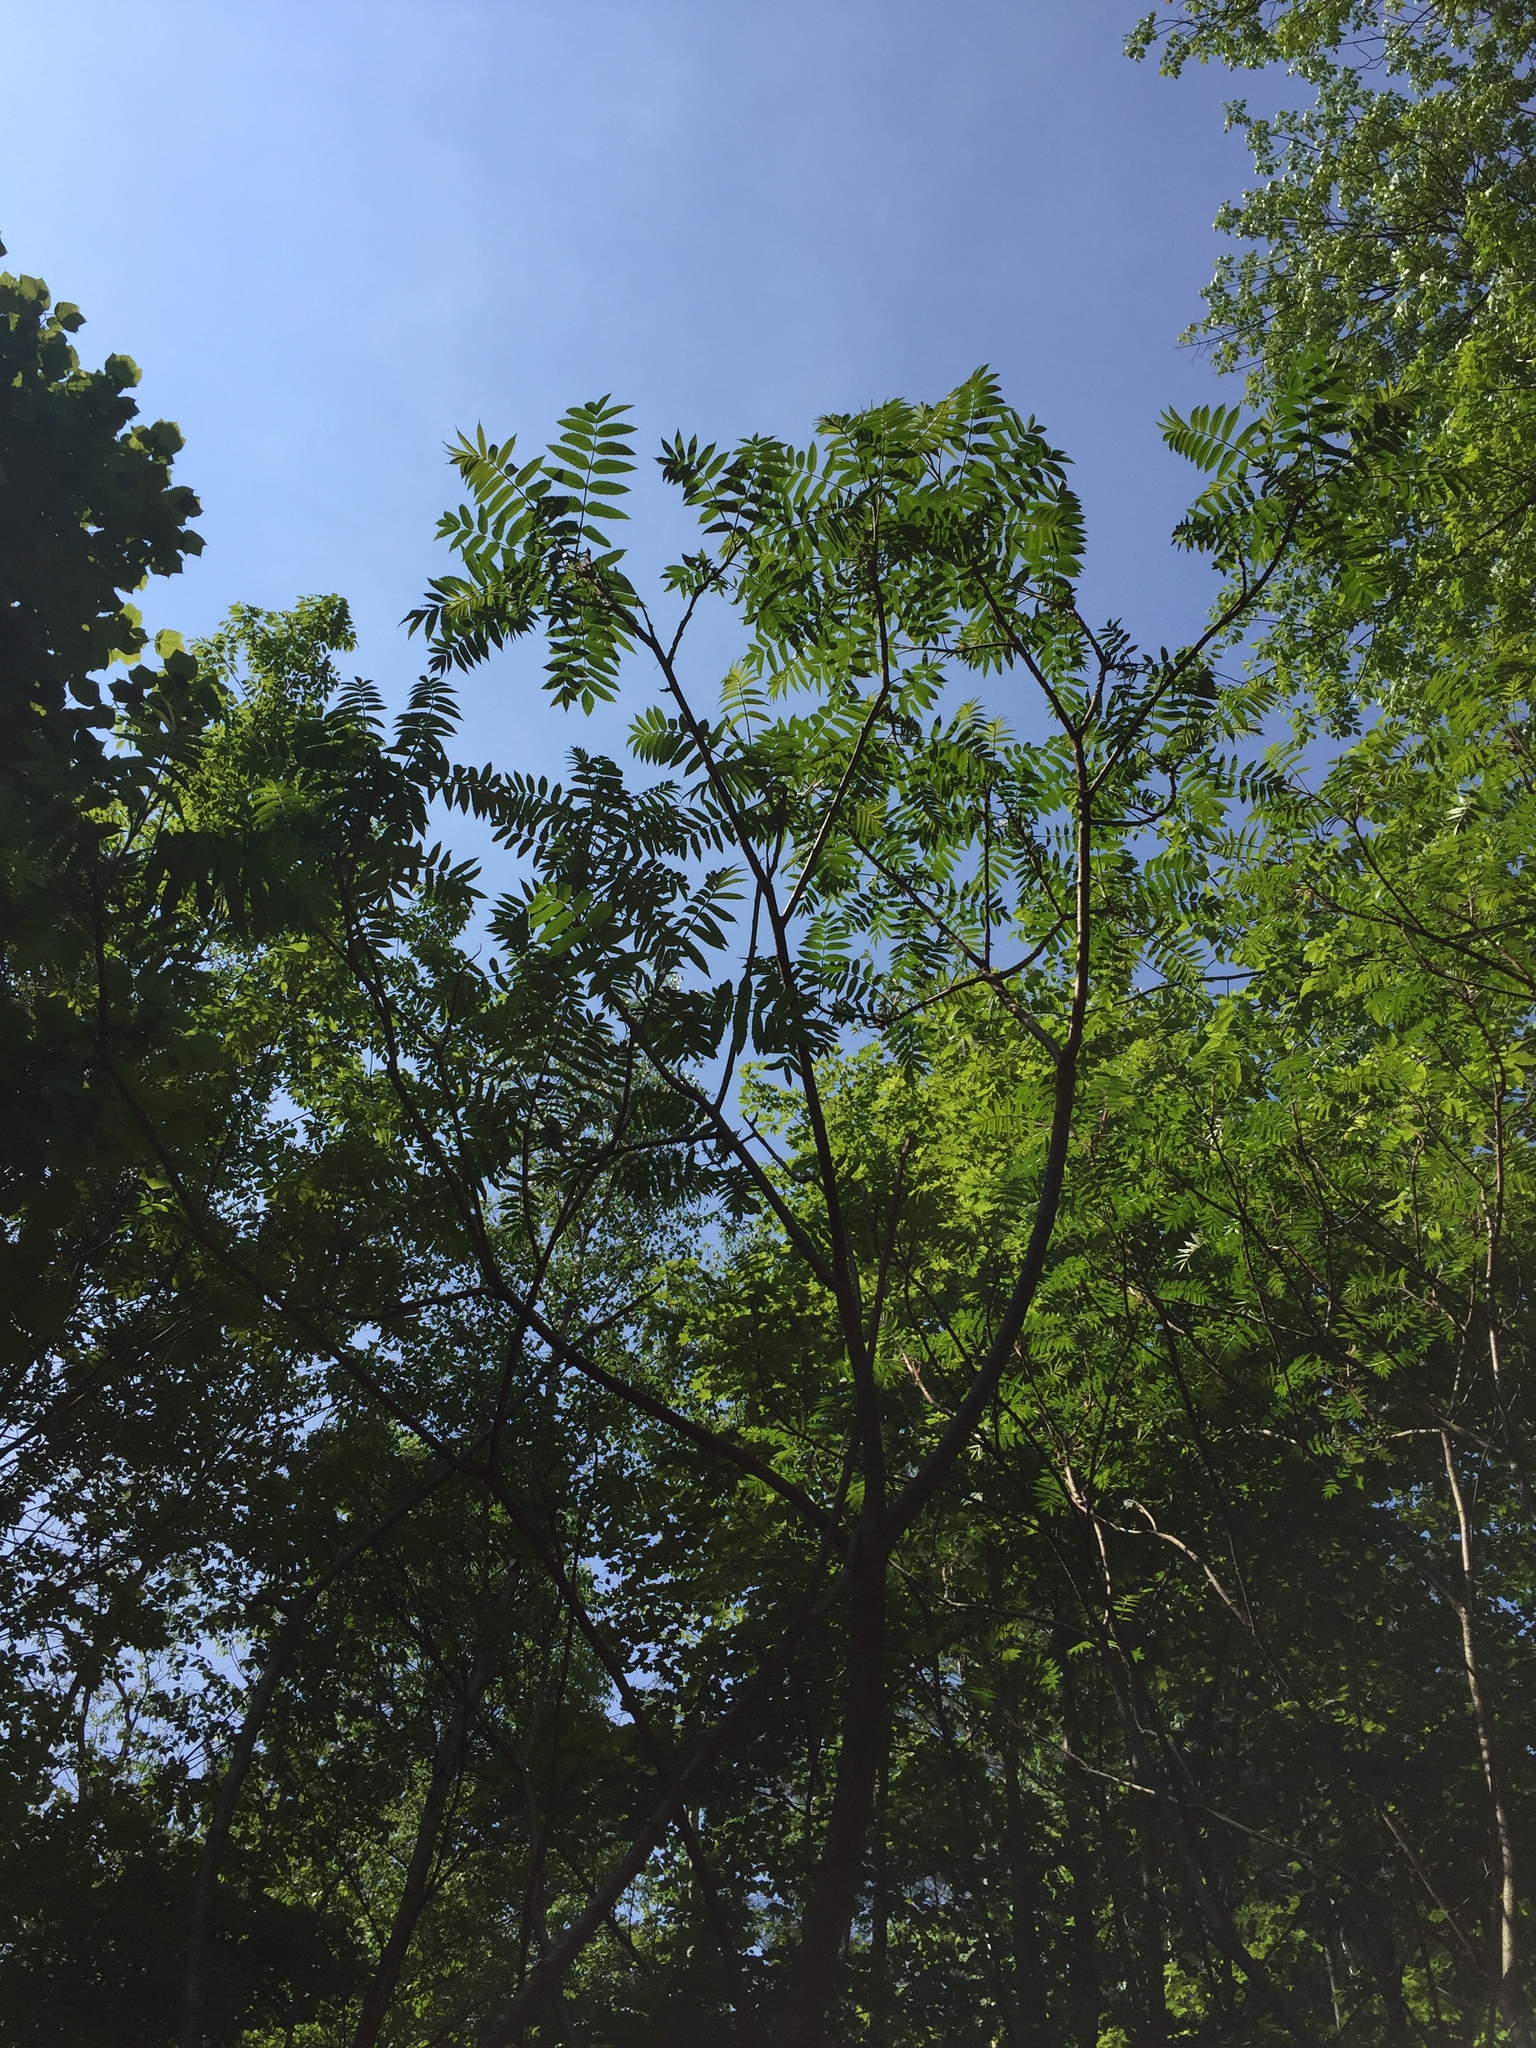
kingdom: Plantae
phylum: Tracheophyta
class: Magnoliopsida
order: Sapindales
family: Anacardiaceae
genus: Rhus
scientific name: Rhus typhina
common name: Staghorn sumac
